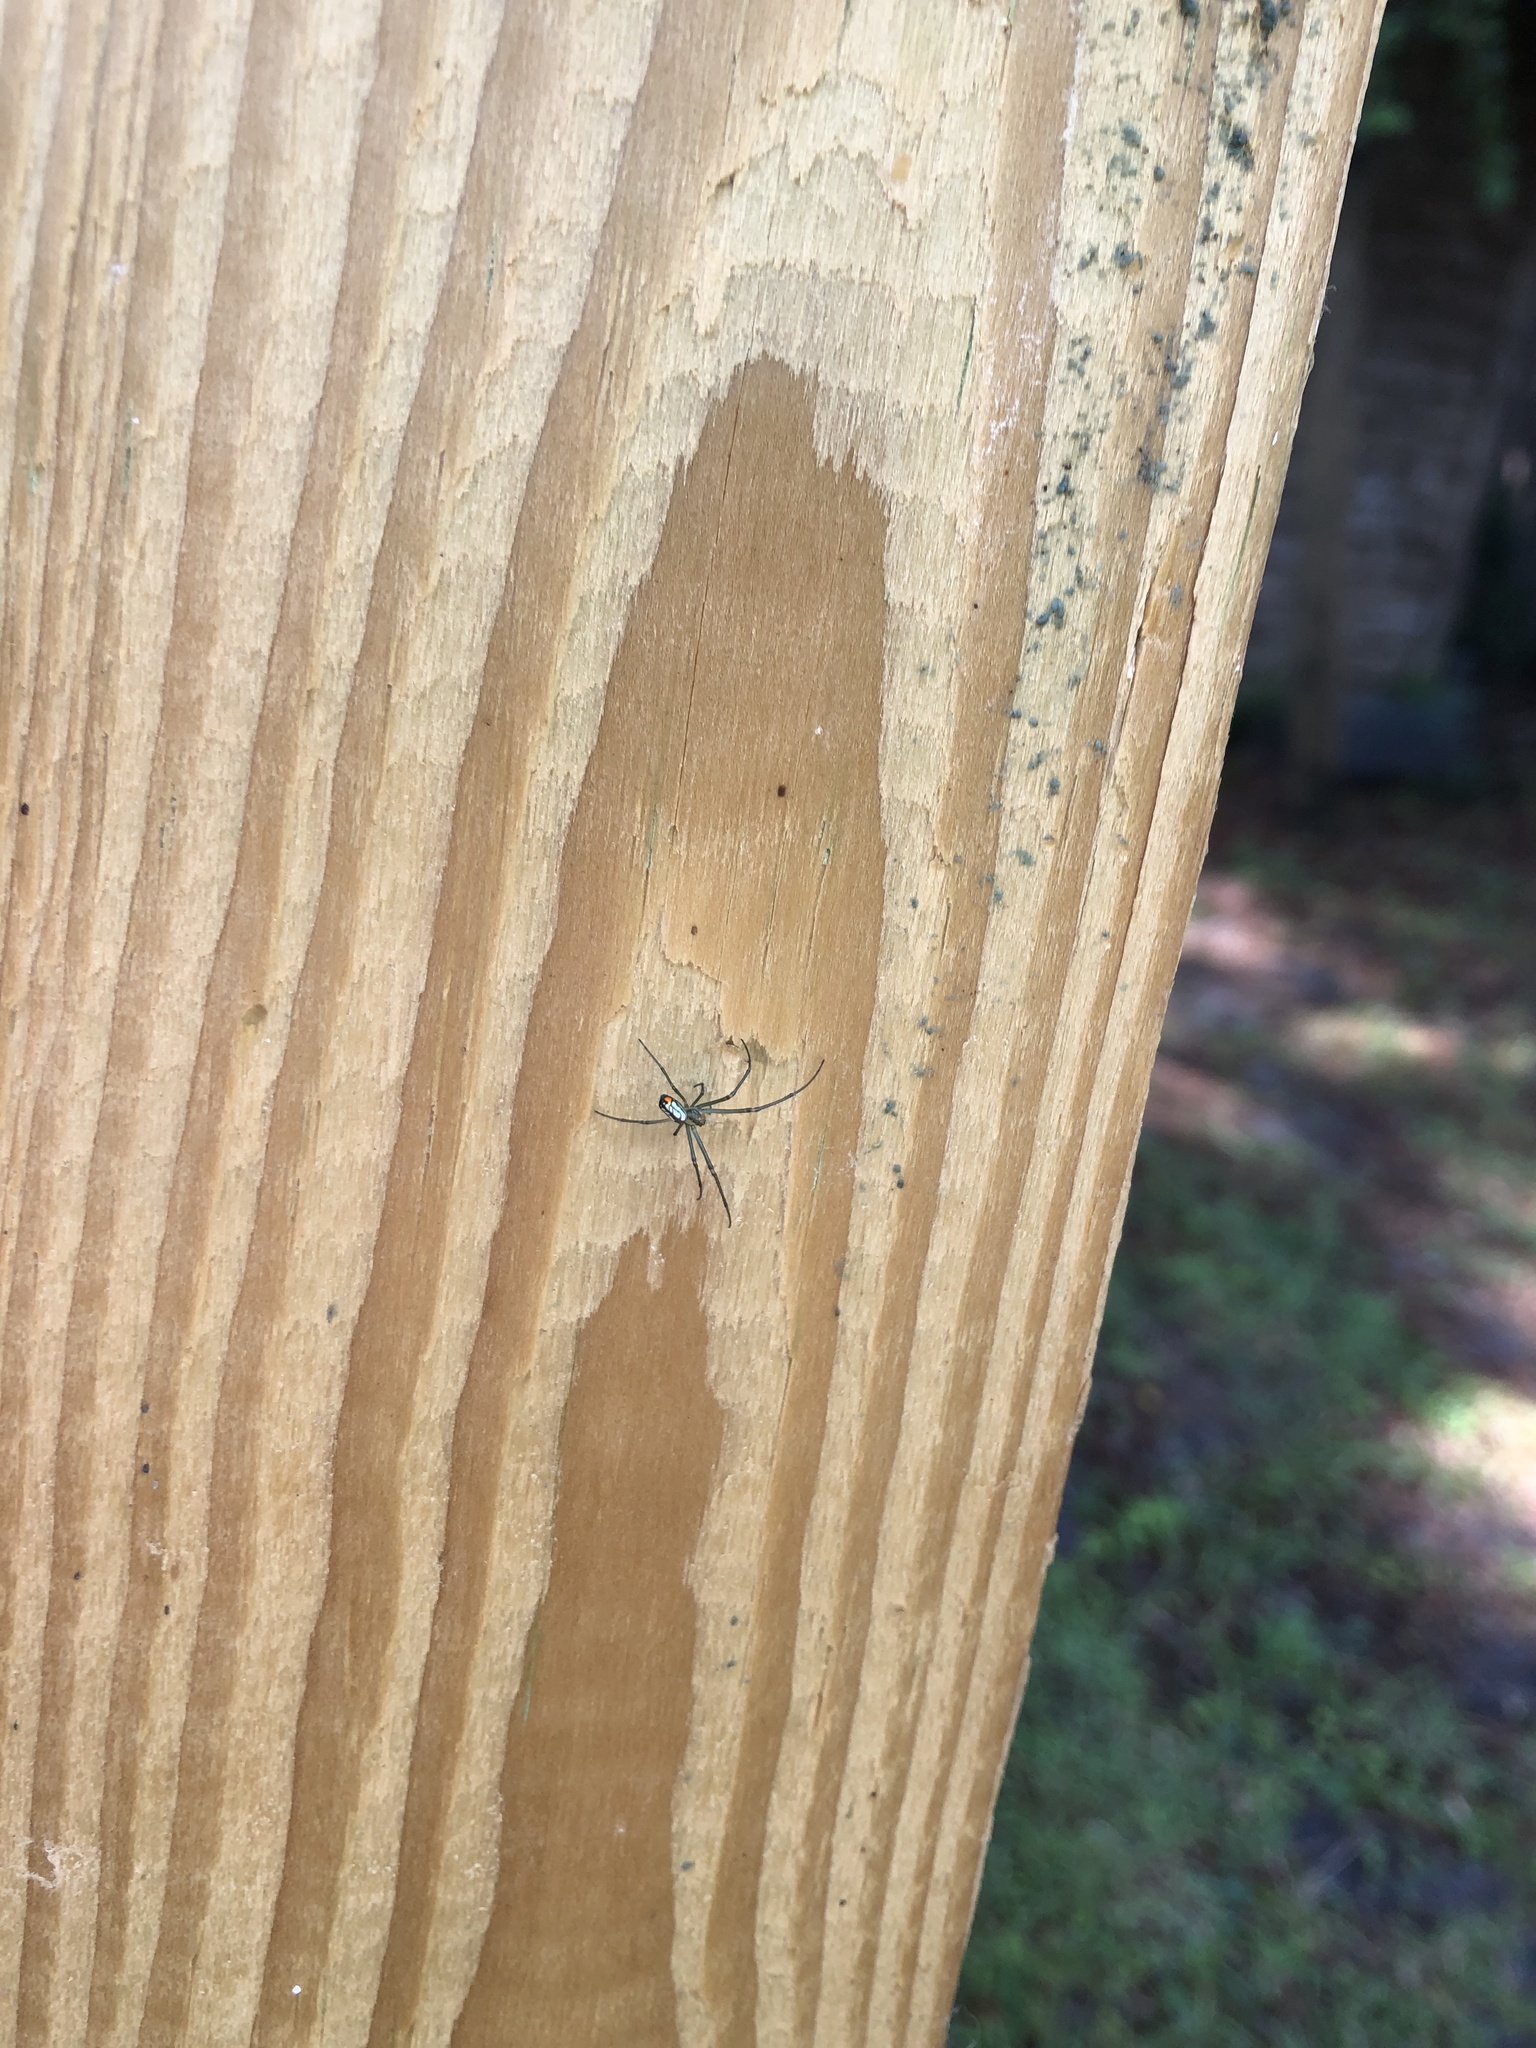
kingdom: Animalia
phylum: Arthropoda
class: Arachnida
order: Araneae
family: Tetragnathidae
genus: Leucauge
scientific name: Leucauge argyrobapta
